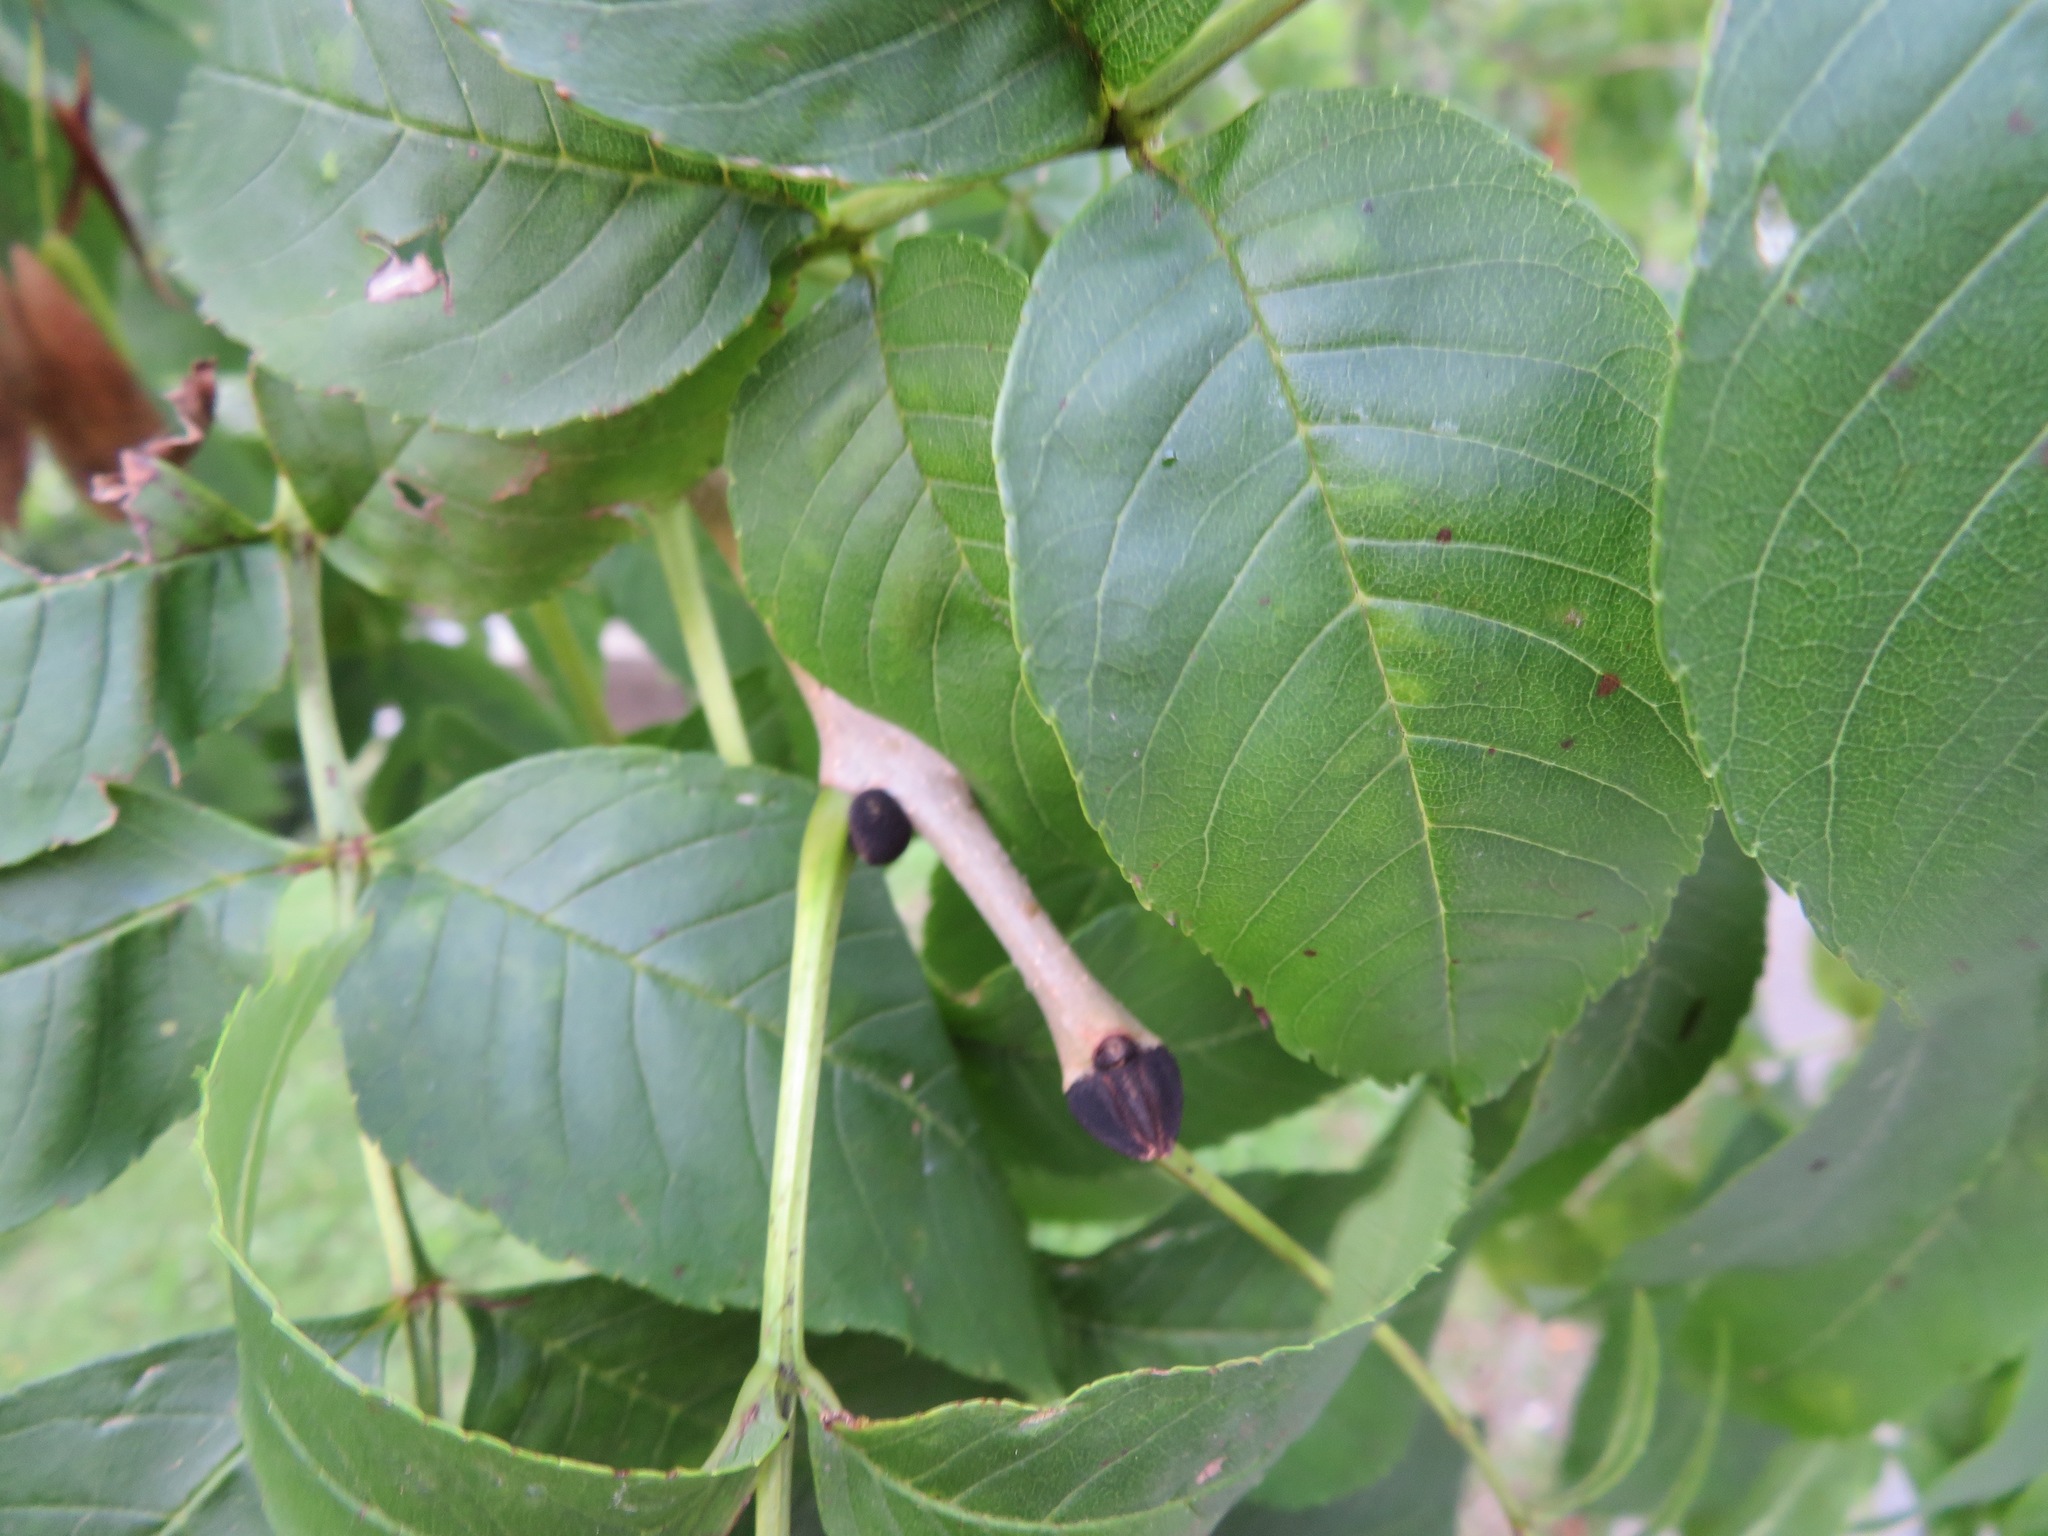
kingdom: Plantae
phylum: Tracheophyta
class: Magnoliopsida
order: Lamiales
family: Oleaceae
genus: Fraxinus
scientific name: Fraxinus excelsior
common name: European ash
